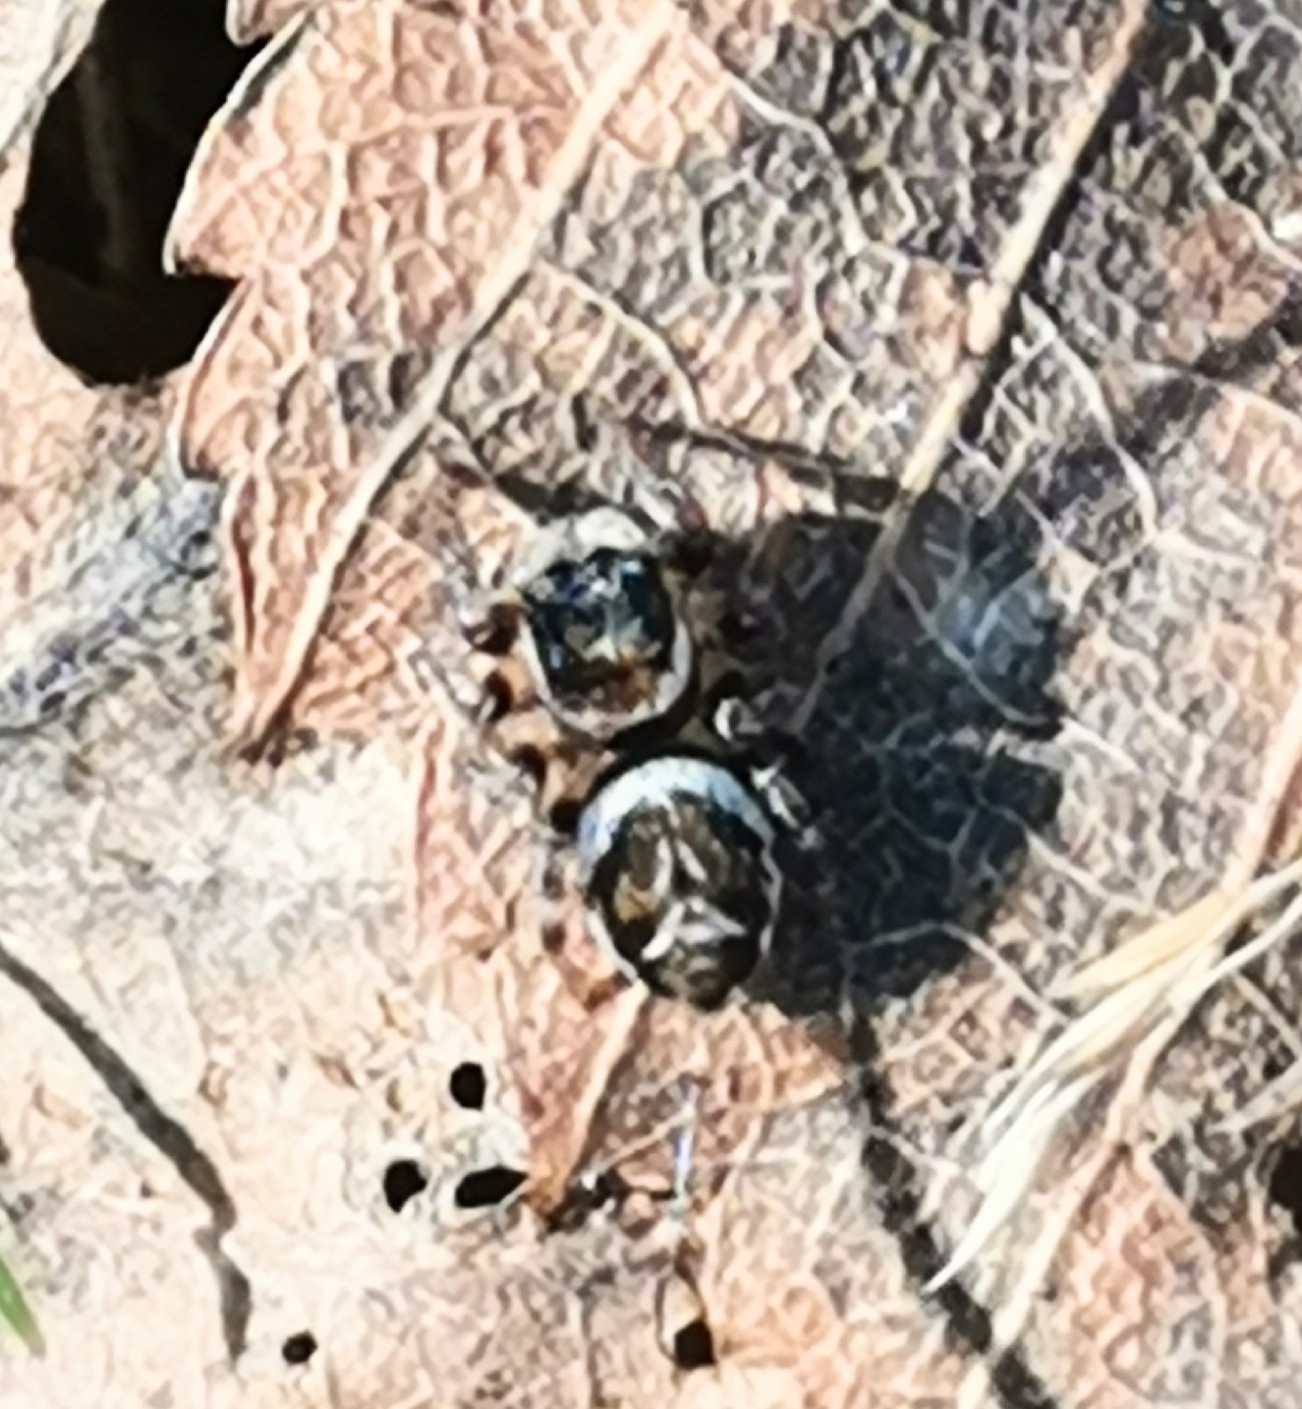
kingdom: Animalia
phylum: Arthropoda
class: Arachnida
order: Araneae
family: Salticidae
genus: Evarcha
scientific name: Evarcha falcata
